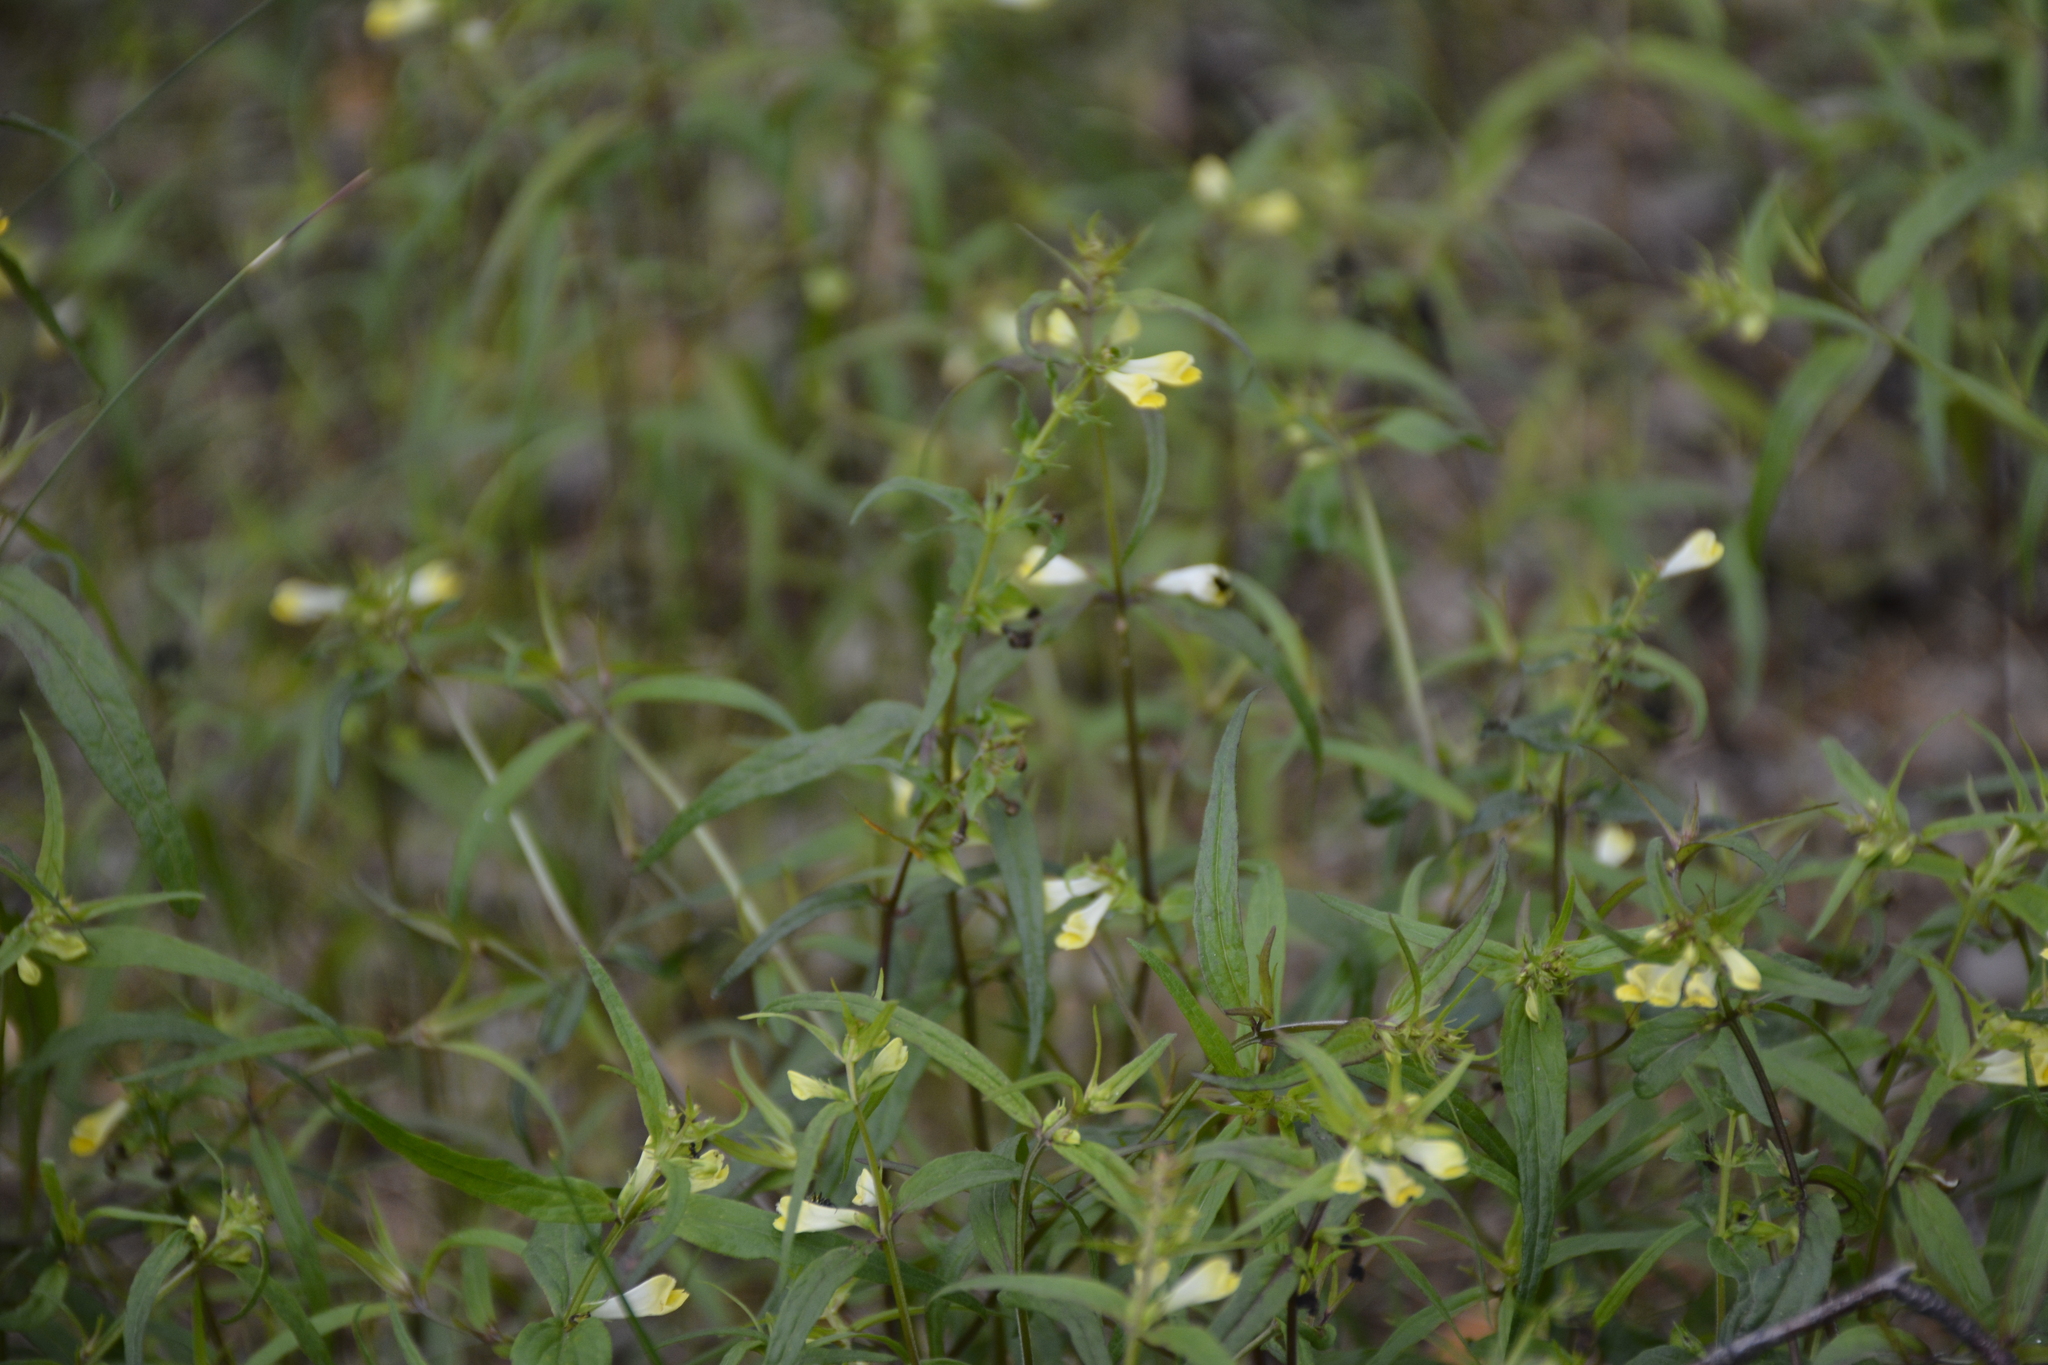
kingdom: Plantae
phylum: Tracheophyta
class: Magnoliopsida
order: Lamiales
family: Orobanchaceae
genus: Melampyrum
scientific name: Melampyrum pratense
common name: Common cow-wheat
